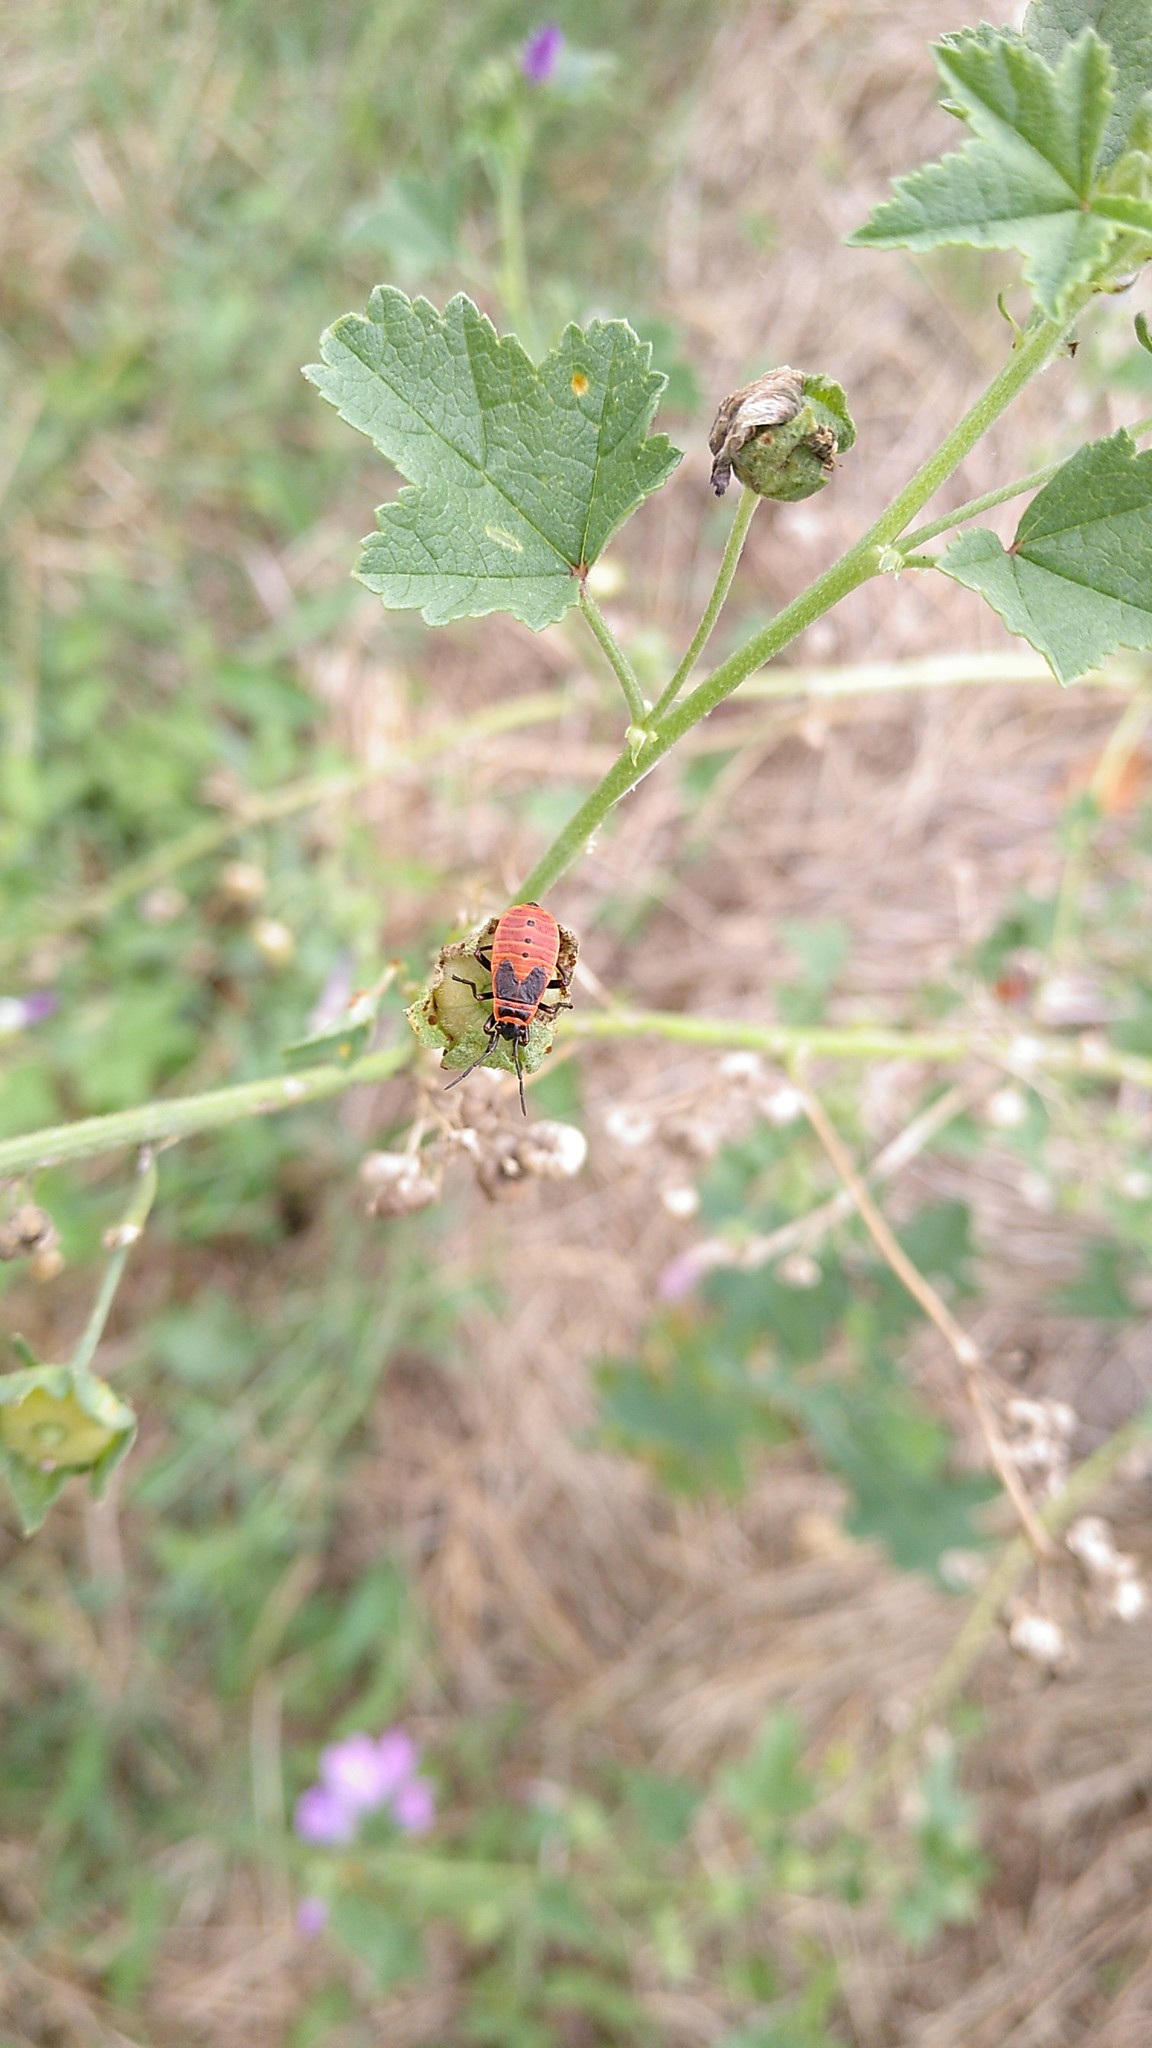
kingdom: Animalia
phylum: Arthropoda
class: Insecta
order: Hemiptera
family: Pyrrhocoridae
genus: Pyrrhocoris
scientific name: Pyrrhocoris apterus
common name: Firebug
